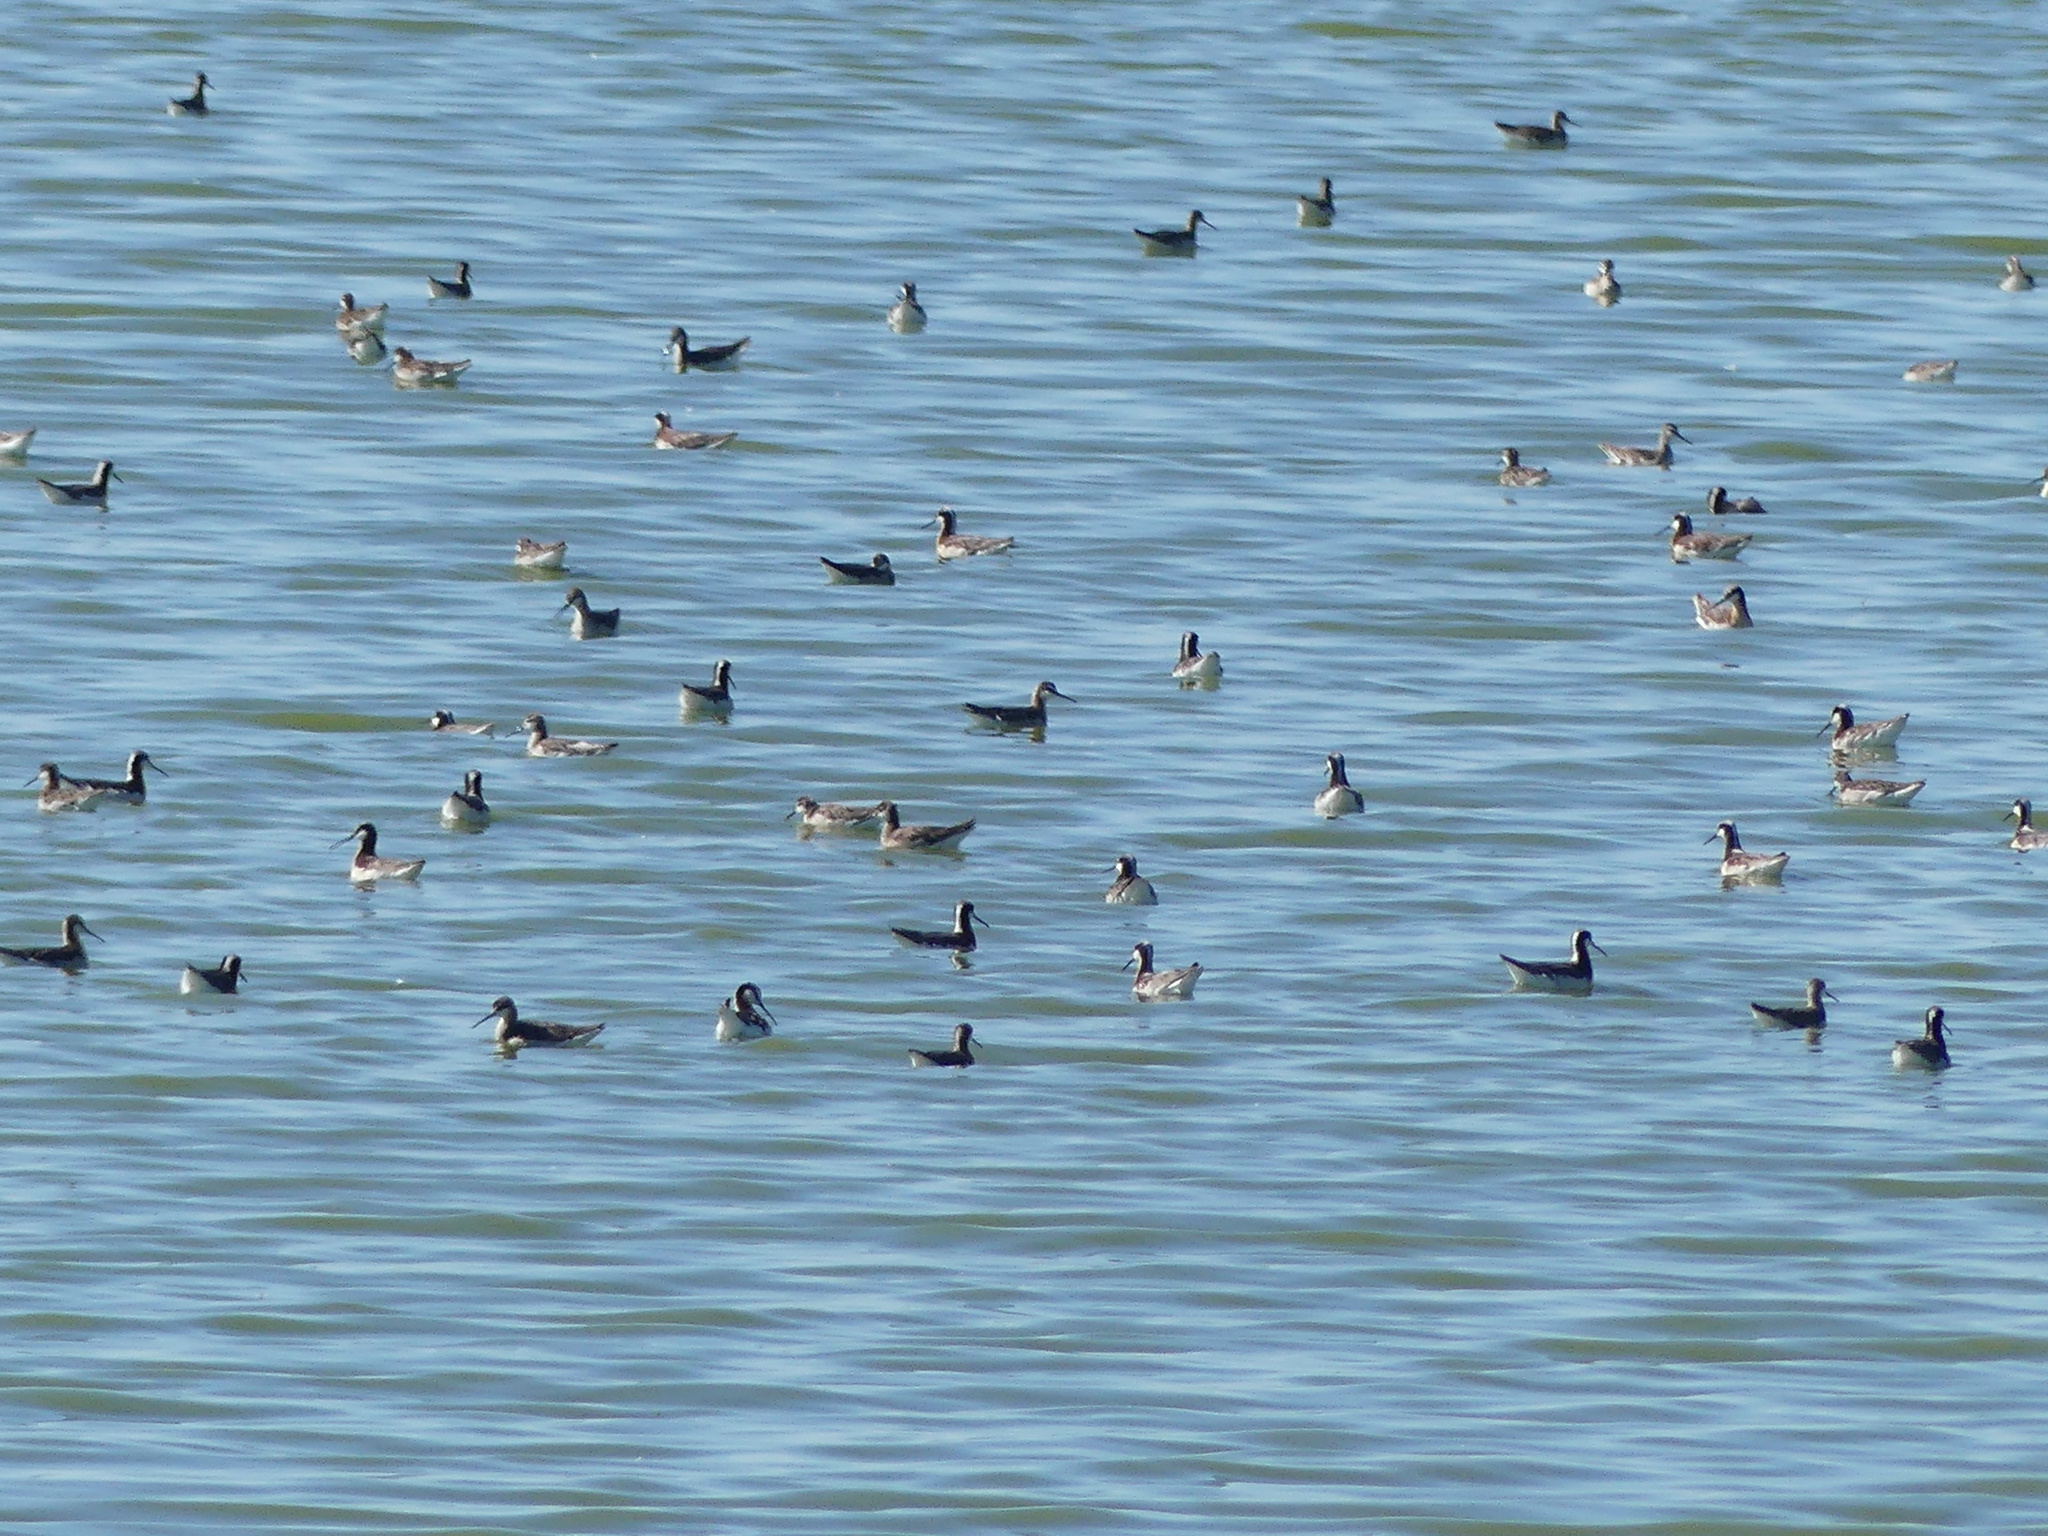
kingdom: Animalia
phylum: Chordata
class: Aves
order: Charadriiformes
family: Scolopacidae
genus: Phalaropus
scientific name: Phalaropus tricolor
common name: Wilson's phalarope
